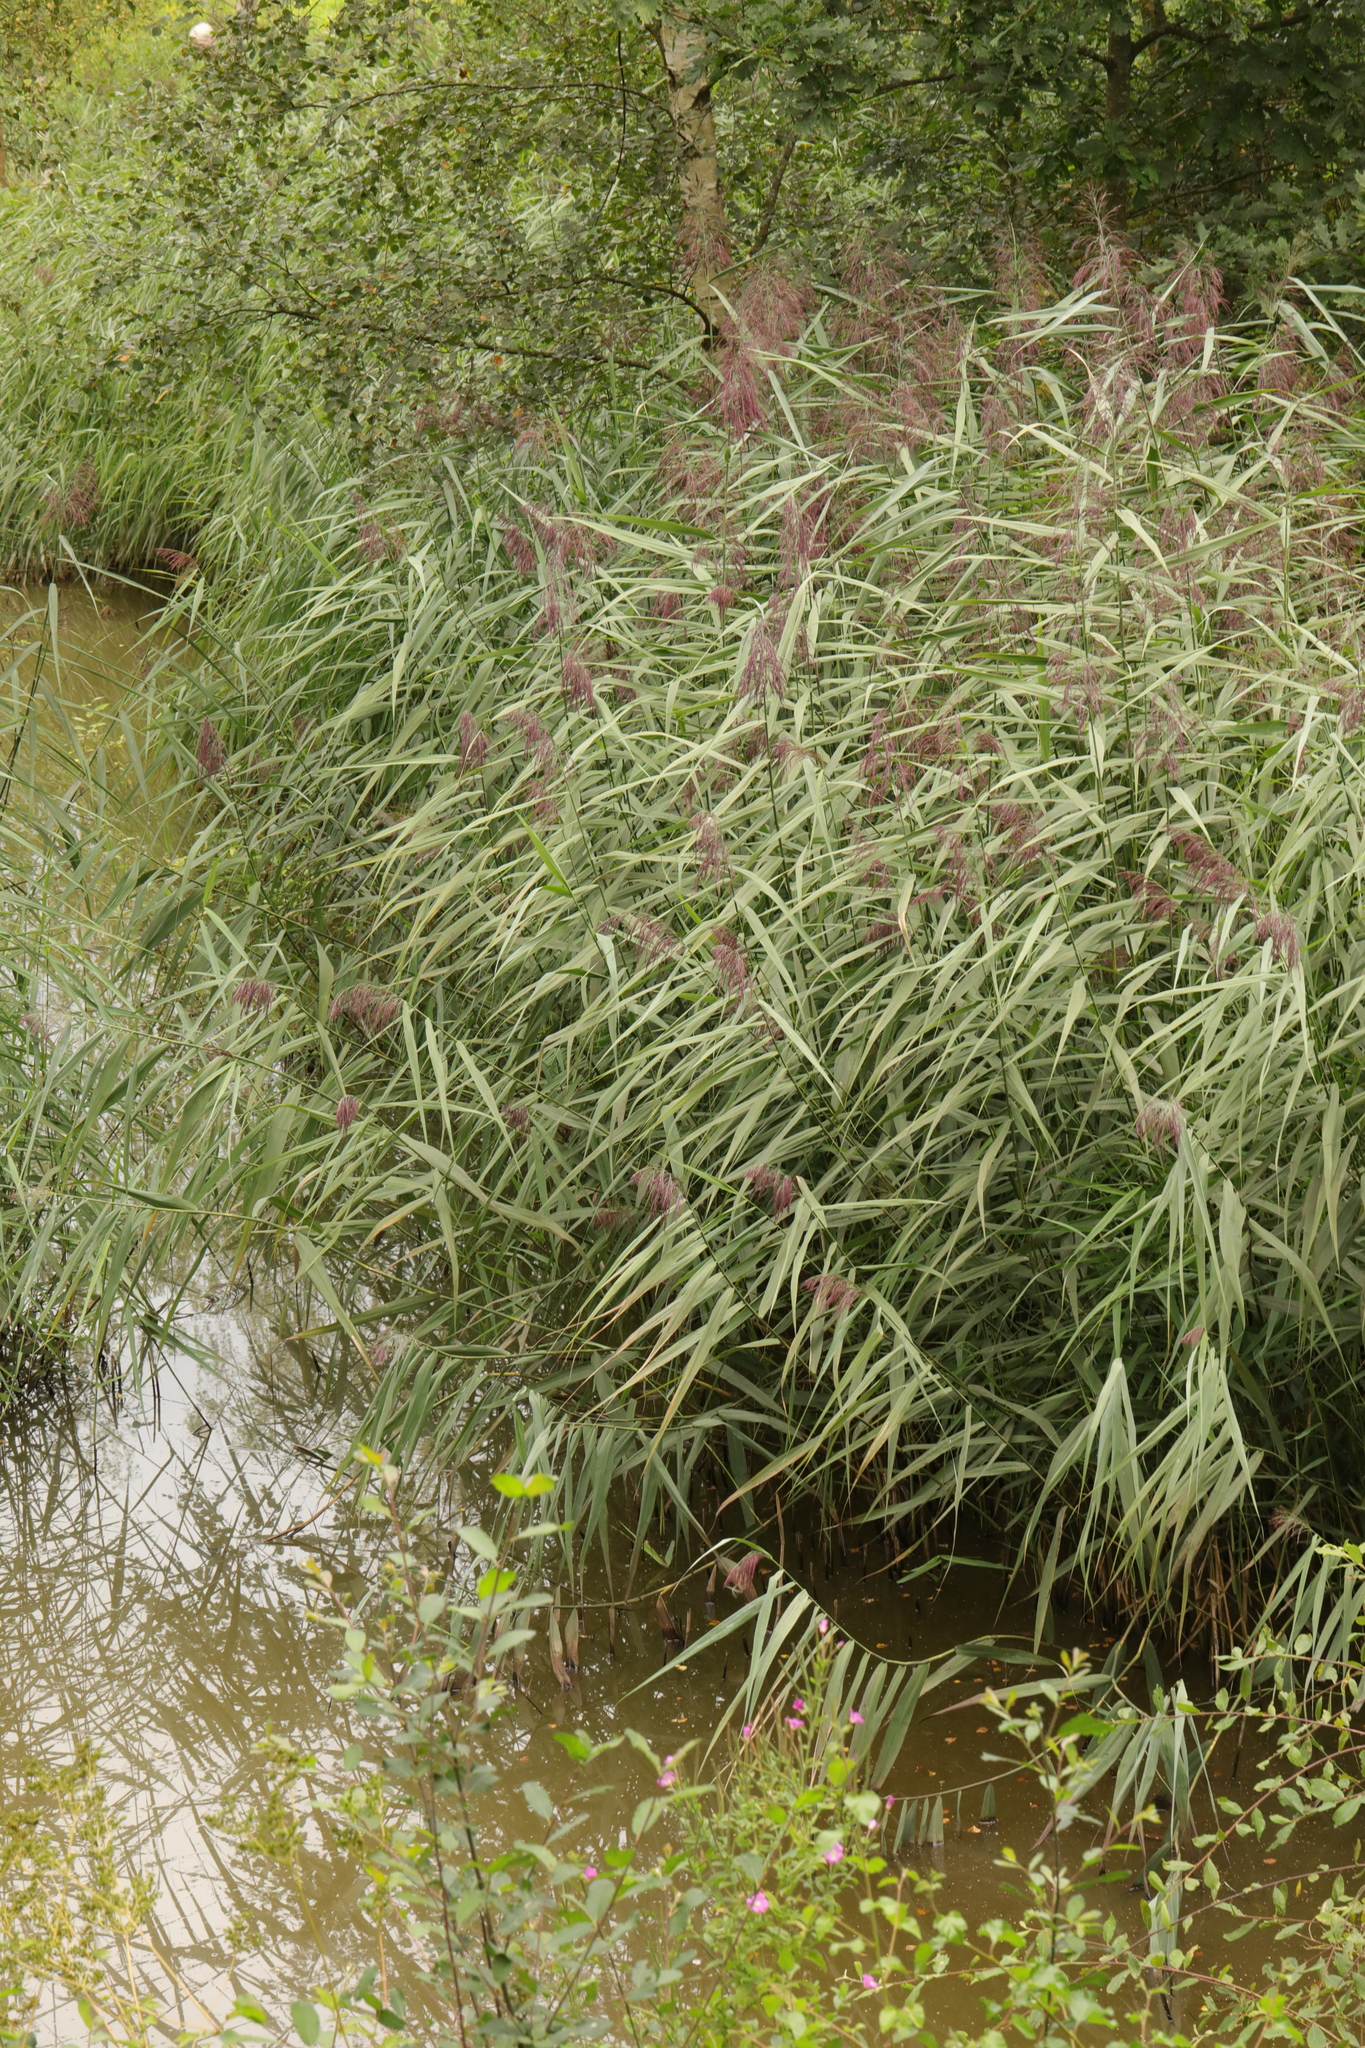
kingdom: Plantae
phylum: Tracheophyta
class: Liliopsida
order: Poales
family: Poaceae
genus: Phragmites
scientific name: Phragmites australis
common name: Common reed
